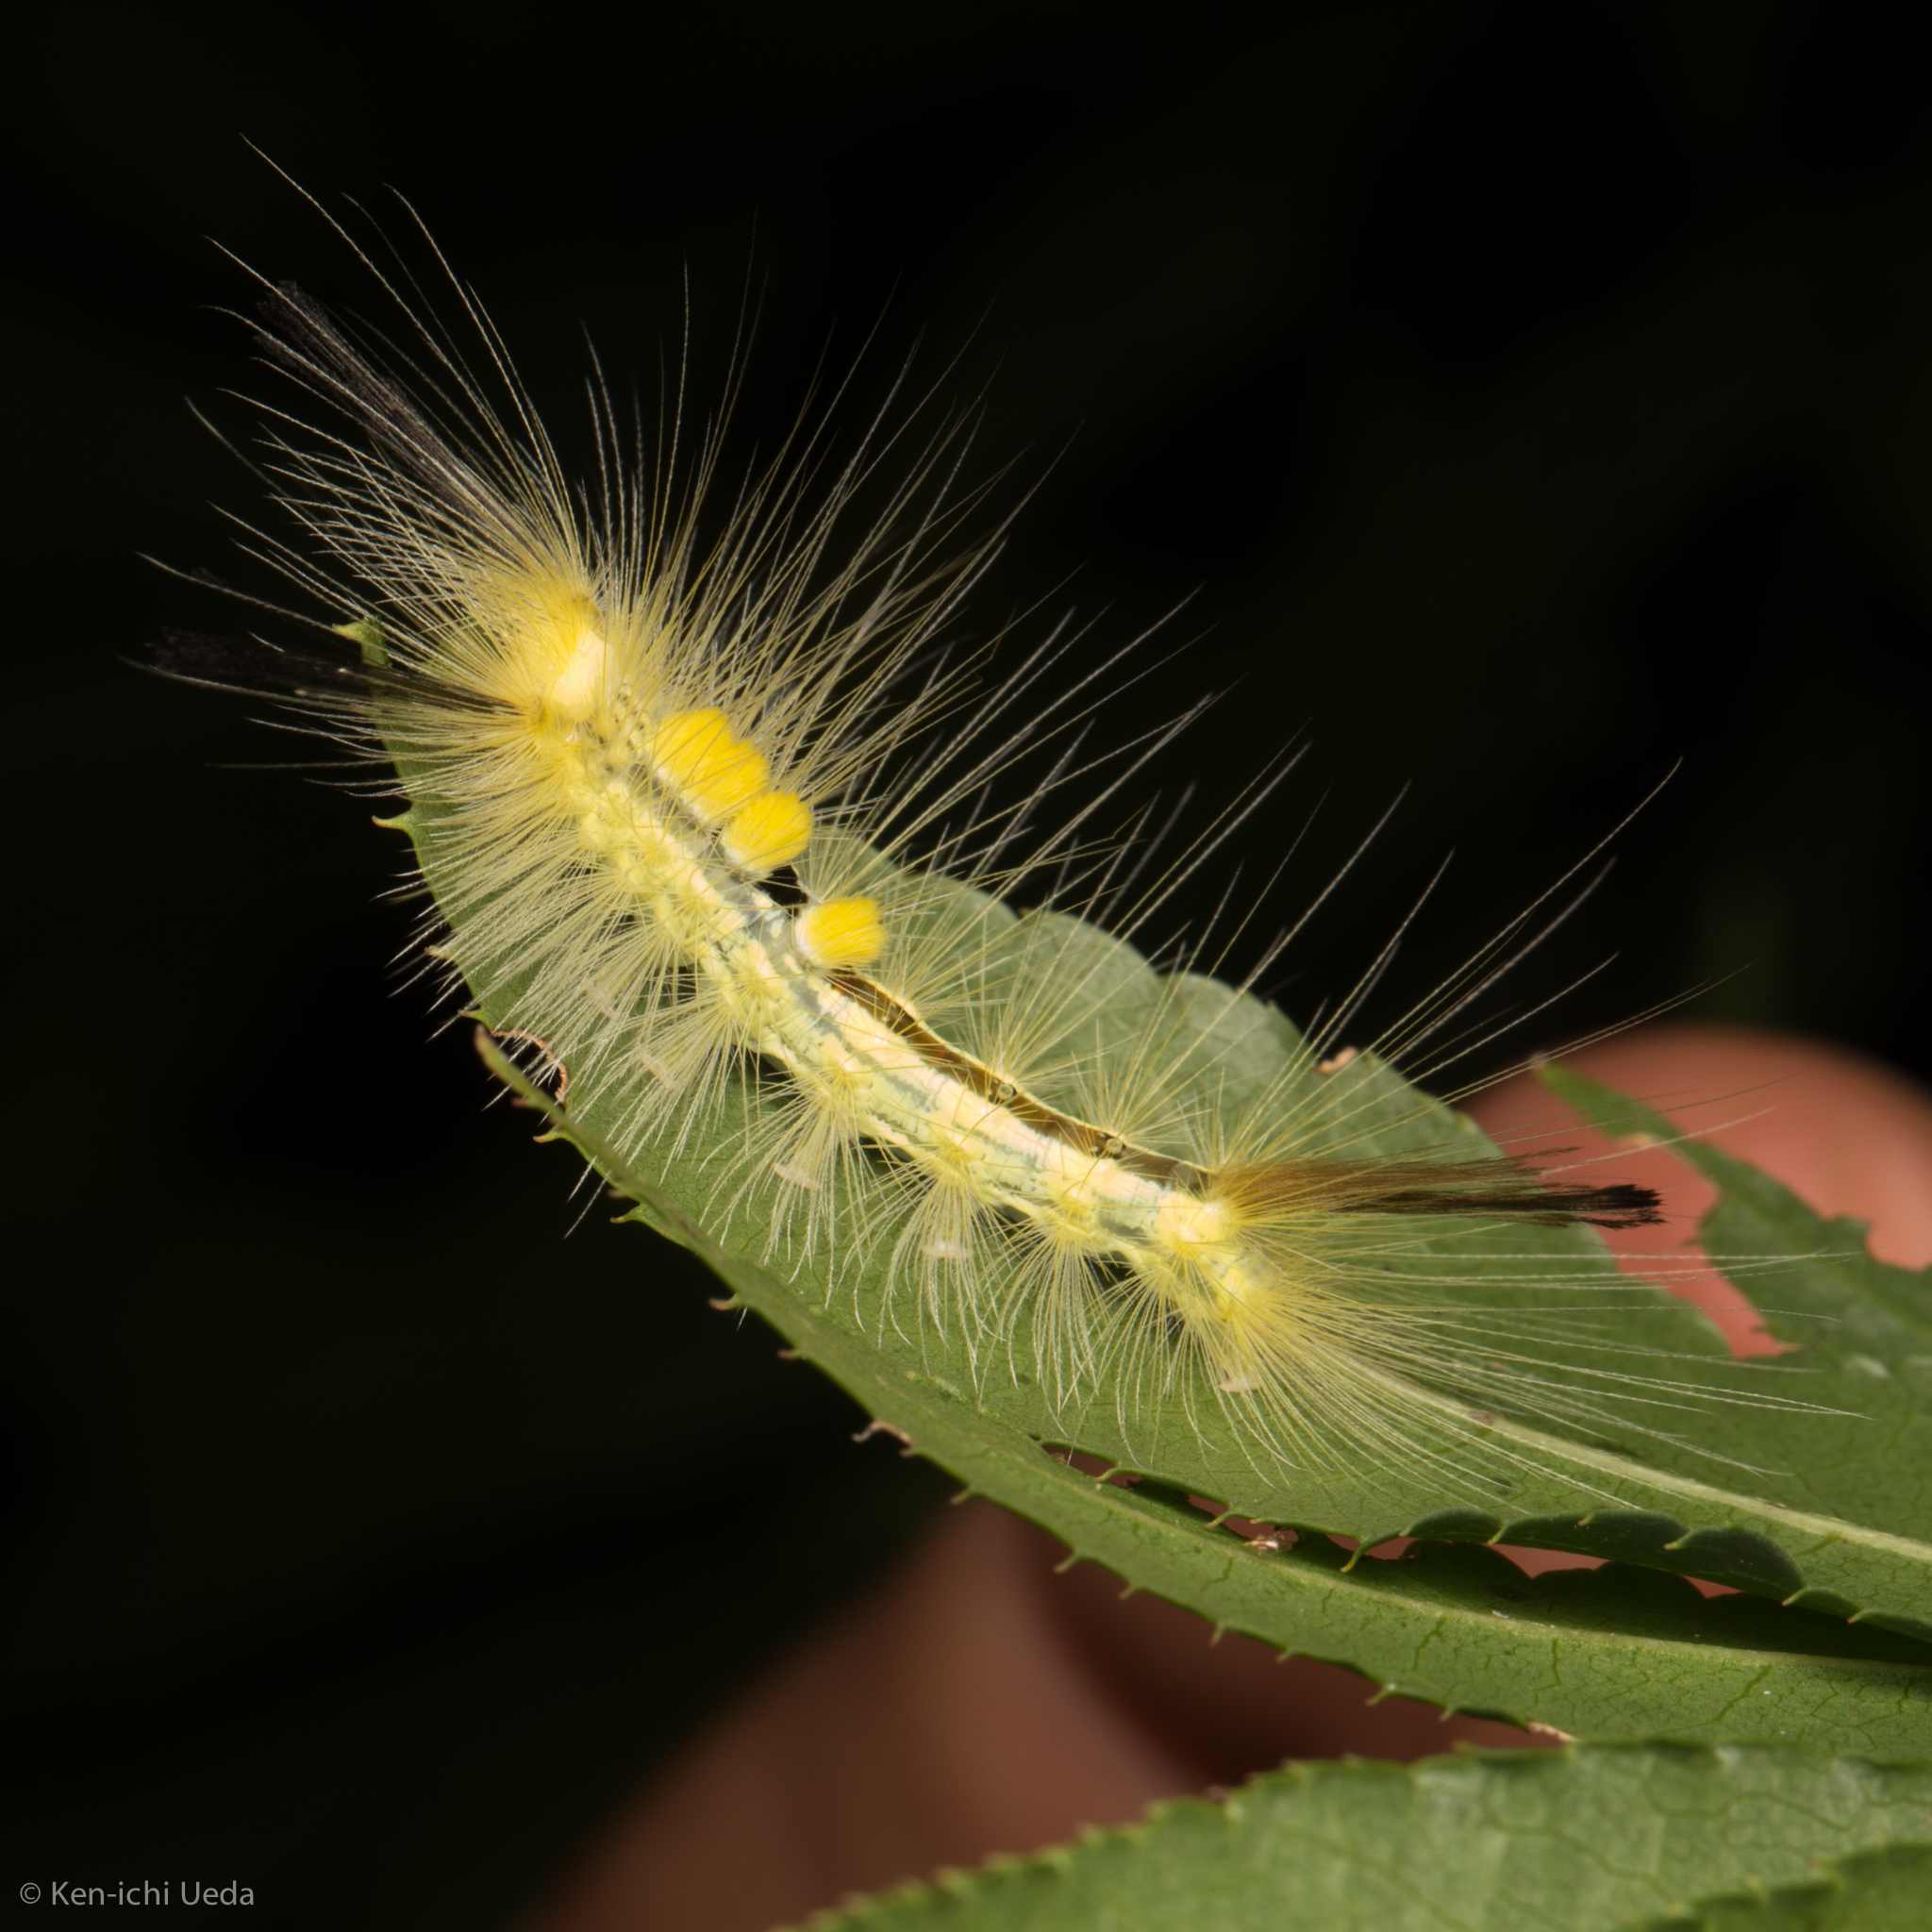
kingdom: Animalia
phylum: Arthropoda
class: Insecta
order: Lepidoptera
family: Erebidae
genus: Orgyia
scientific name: Orgyia definita
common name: Definite tussock moth
